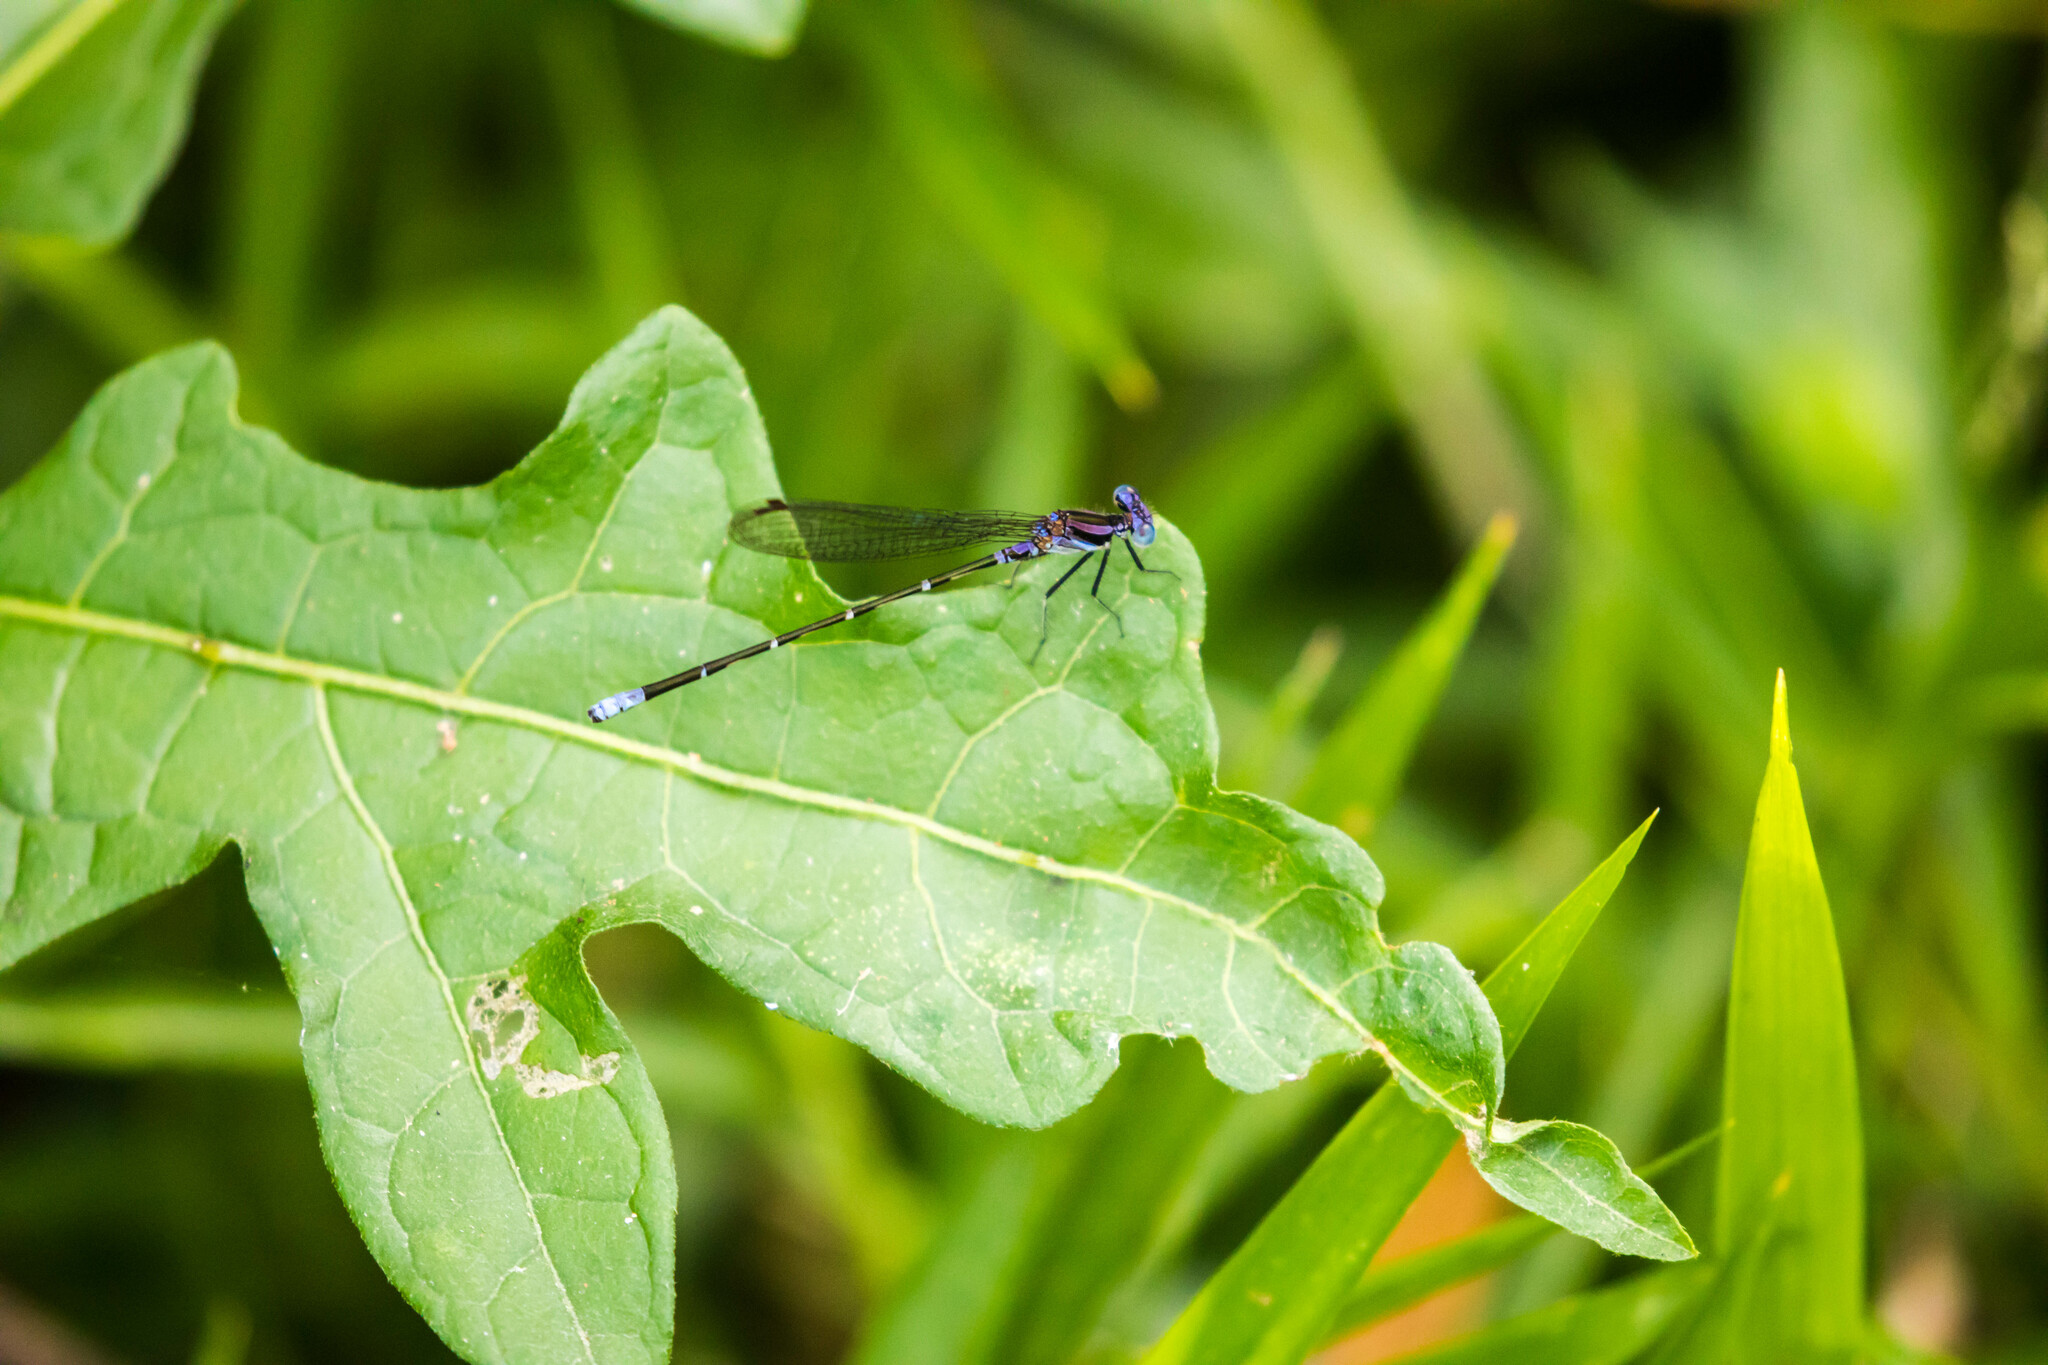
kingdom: Animalia
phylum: Arthropoda
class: Insecta
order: Odonata
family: Coenagrionidae
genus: Argia
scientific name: Argia pulla
